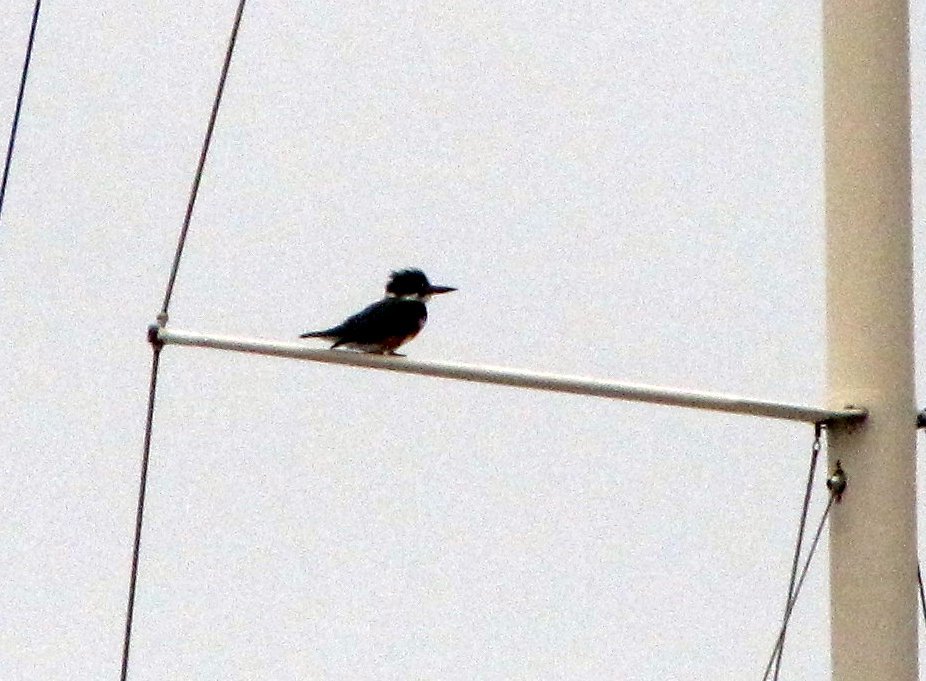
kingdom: Animalia
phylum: Chordata
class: Aves
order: Coraciiformes
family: Alcedinidae
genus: Megaceryle
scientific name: Megaceryle alcyon
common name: Belted kingfisher
